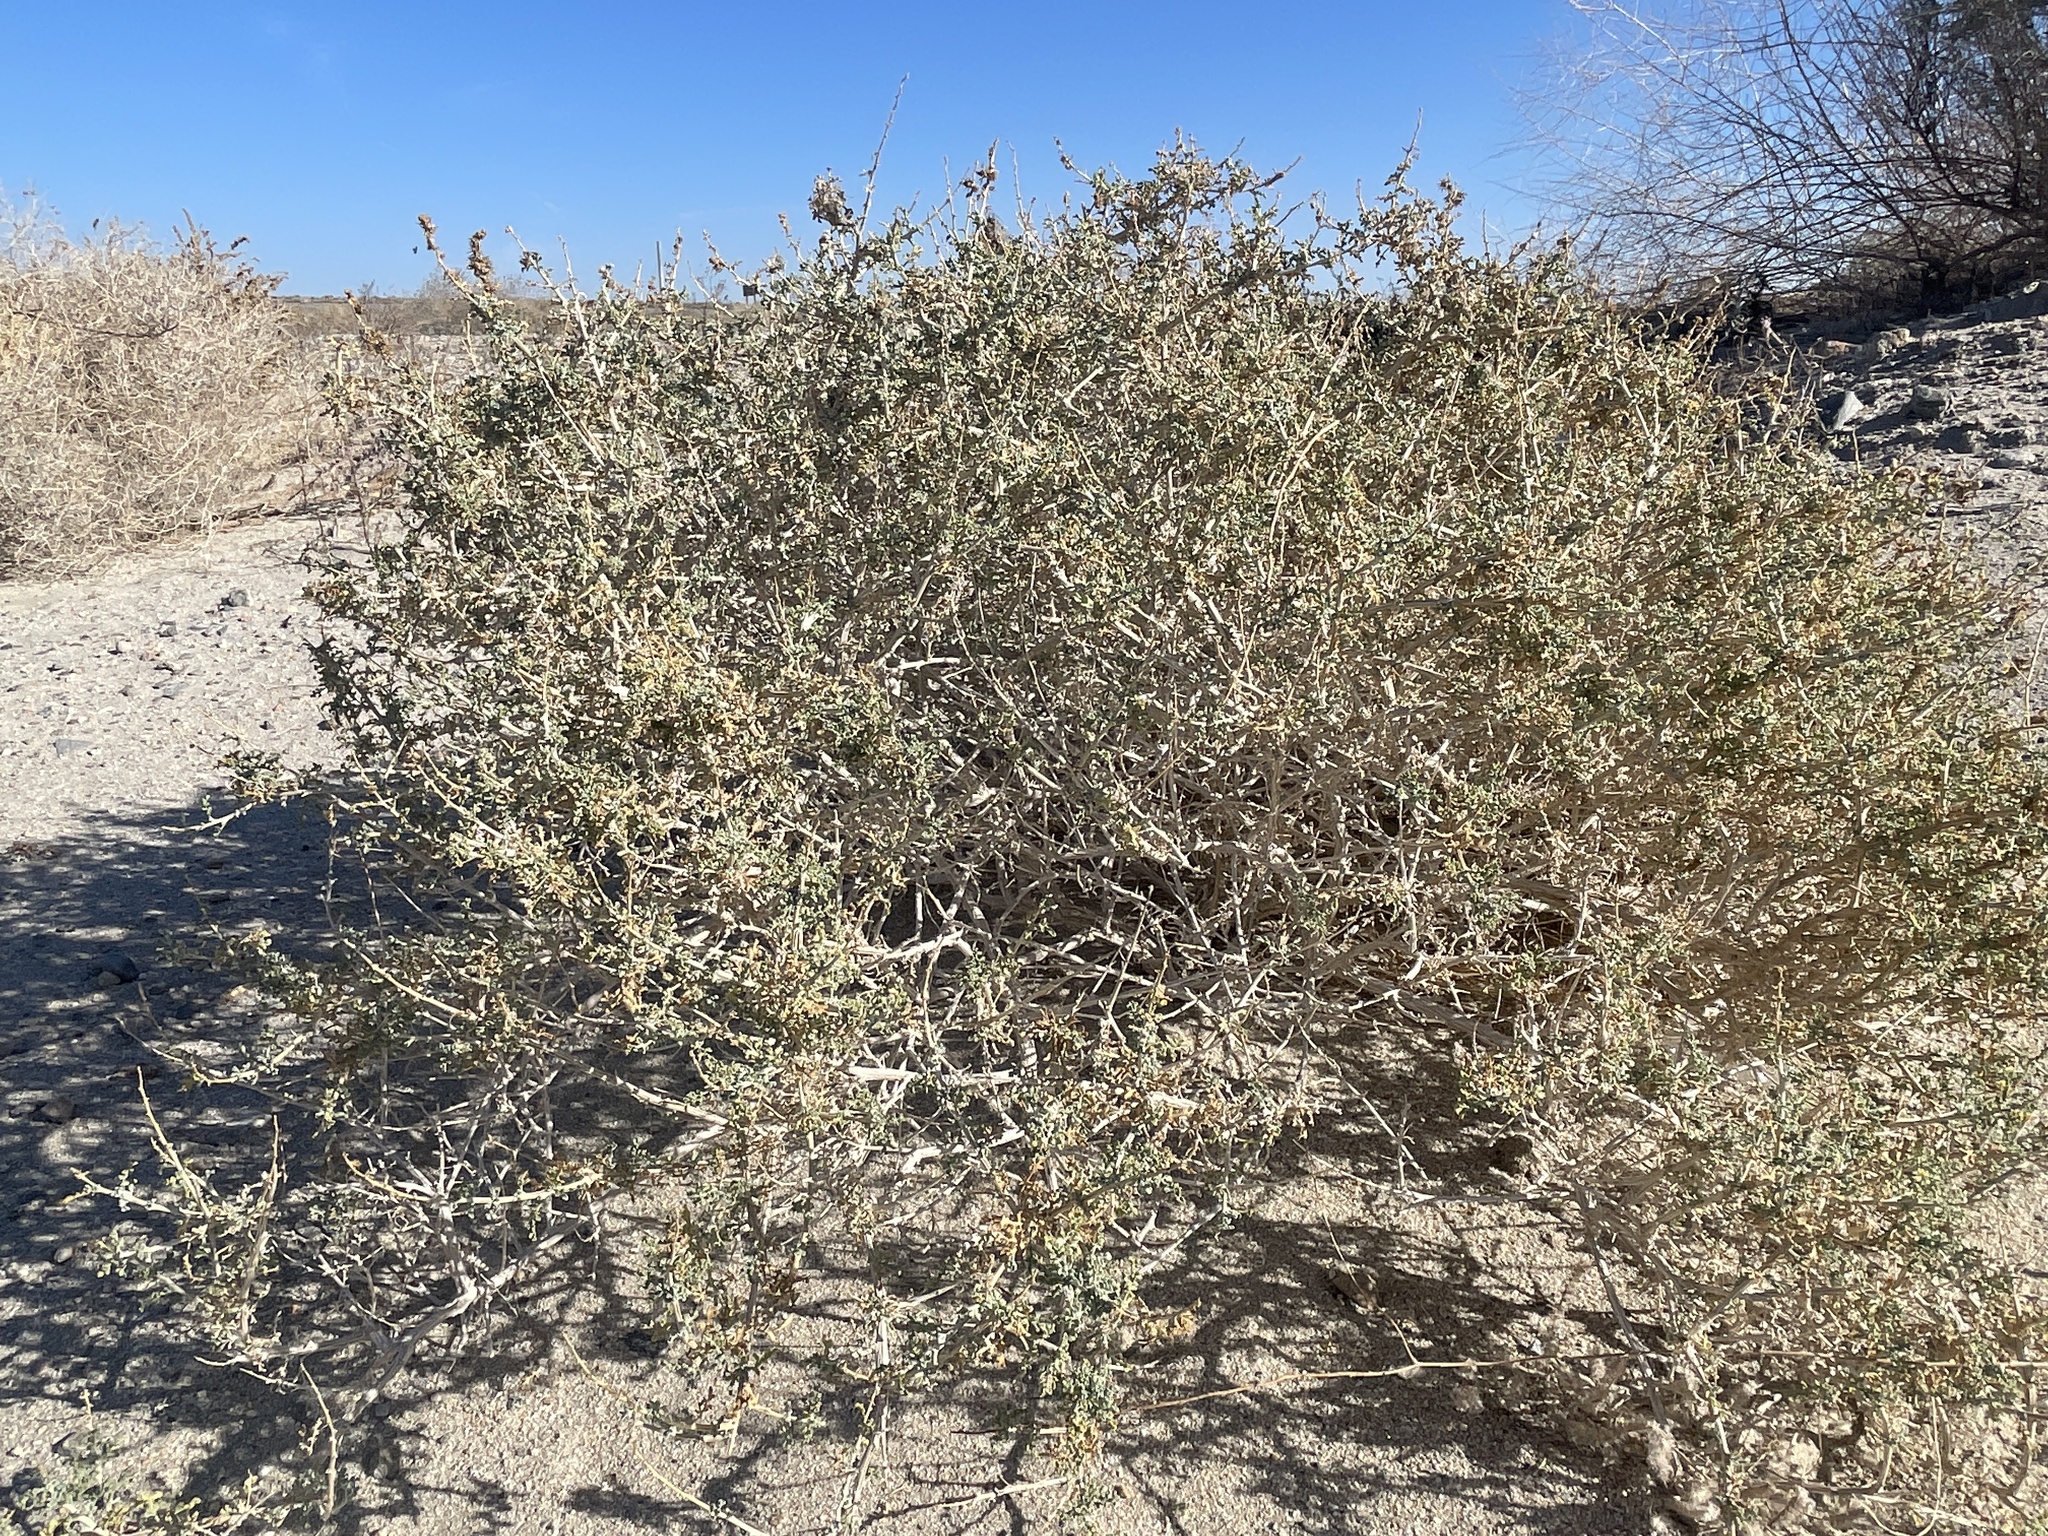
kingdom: Plantae
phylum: Tracheophyta
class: Magnoliopsida
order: Asterales
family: Asteraceae
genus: Ambrosia
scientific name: Ambrosia dumosa
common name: Bur-sage
